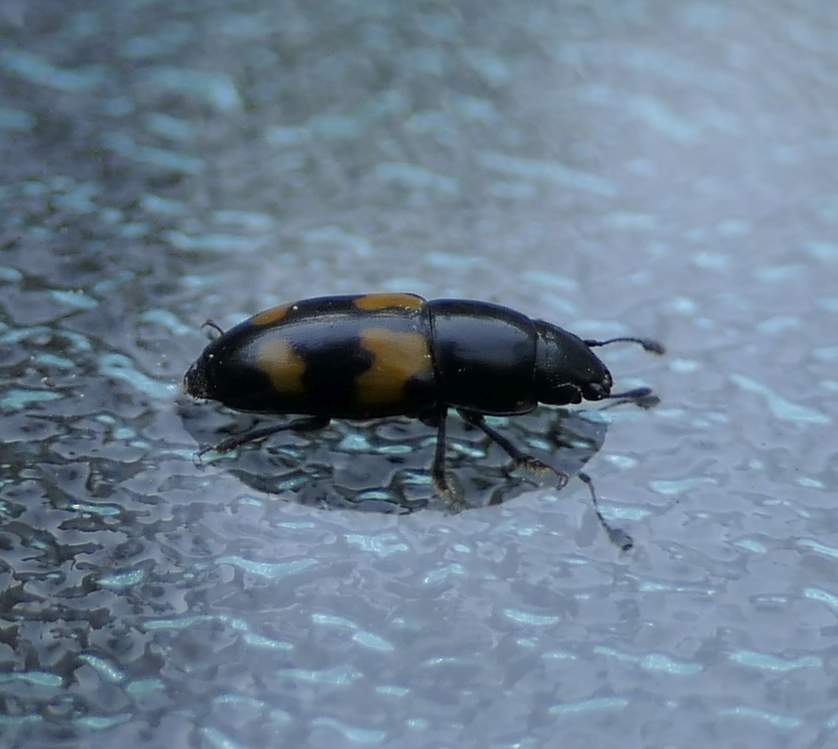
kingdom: Animalia
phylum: Arthropoda
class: Insecta
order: Coleoptera
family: Nitidulidae
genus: Glischrochilus
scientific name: Glischrochilus fasciatus
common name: Picnic beetle
